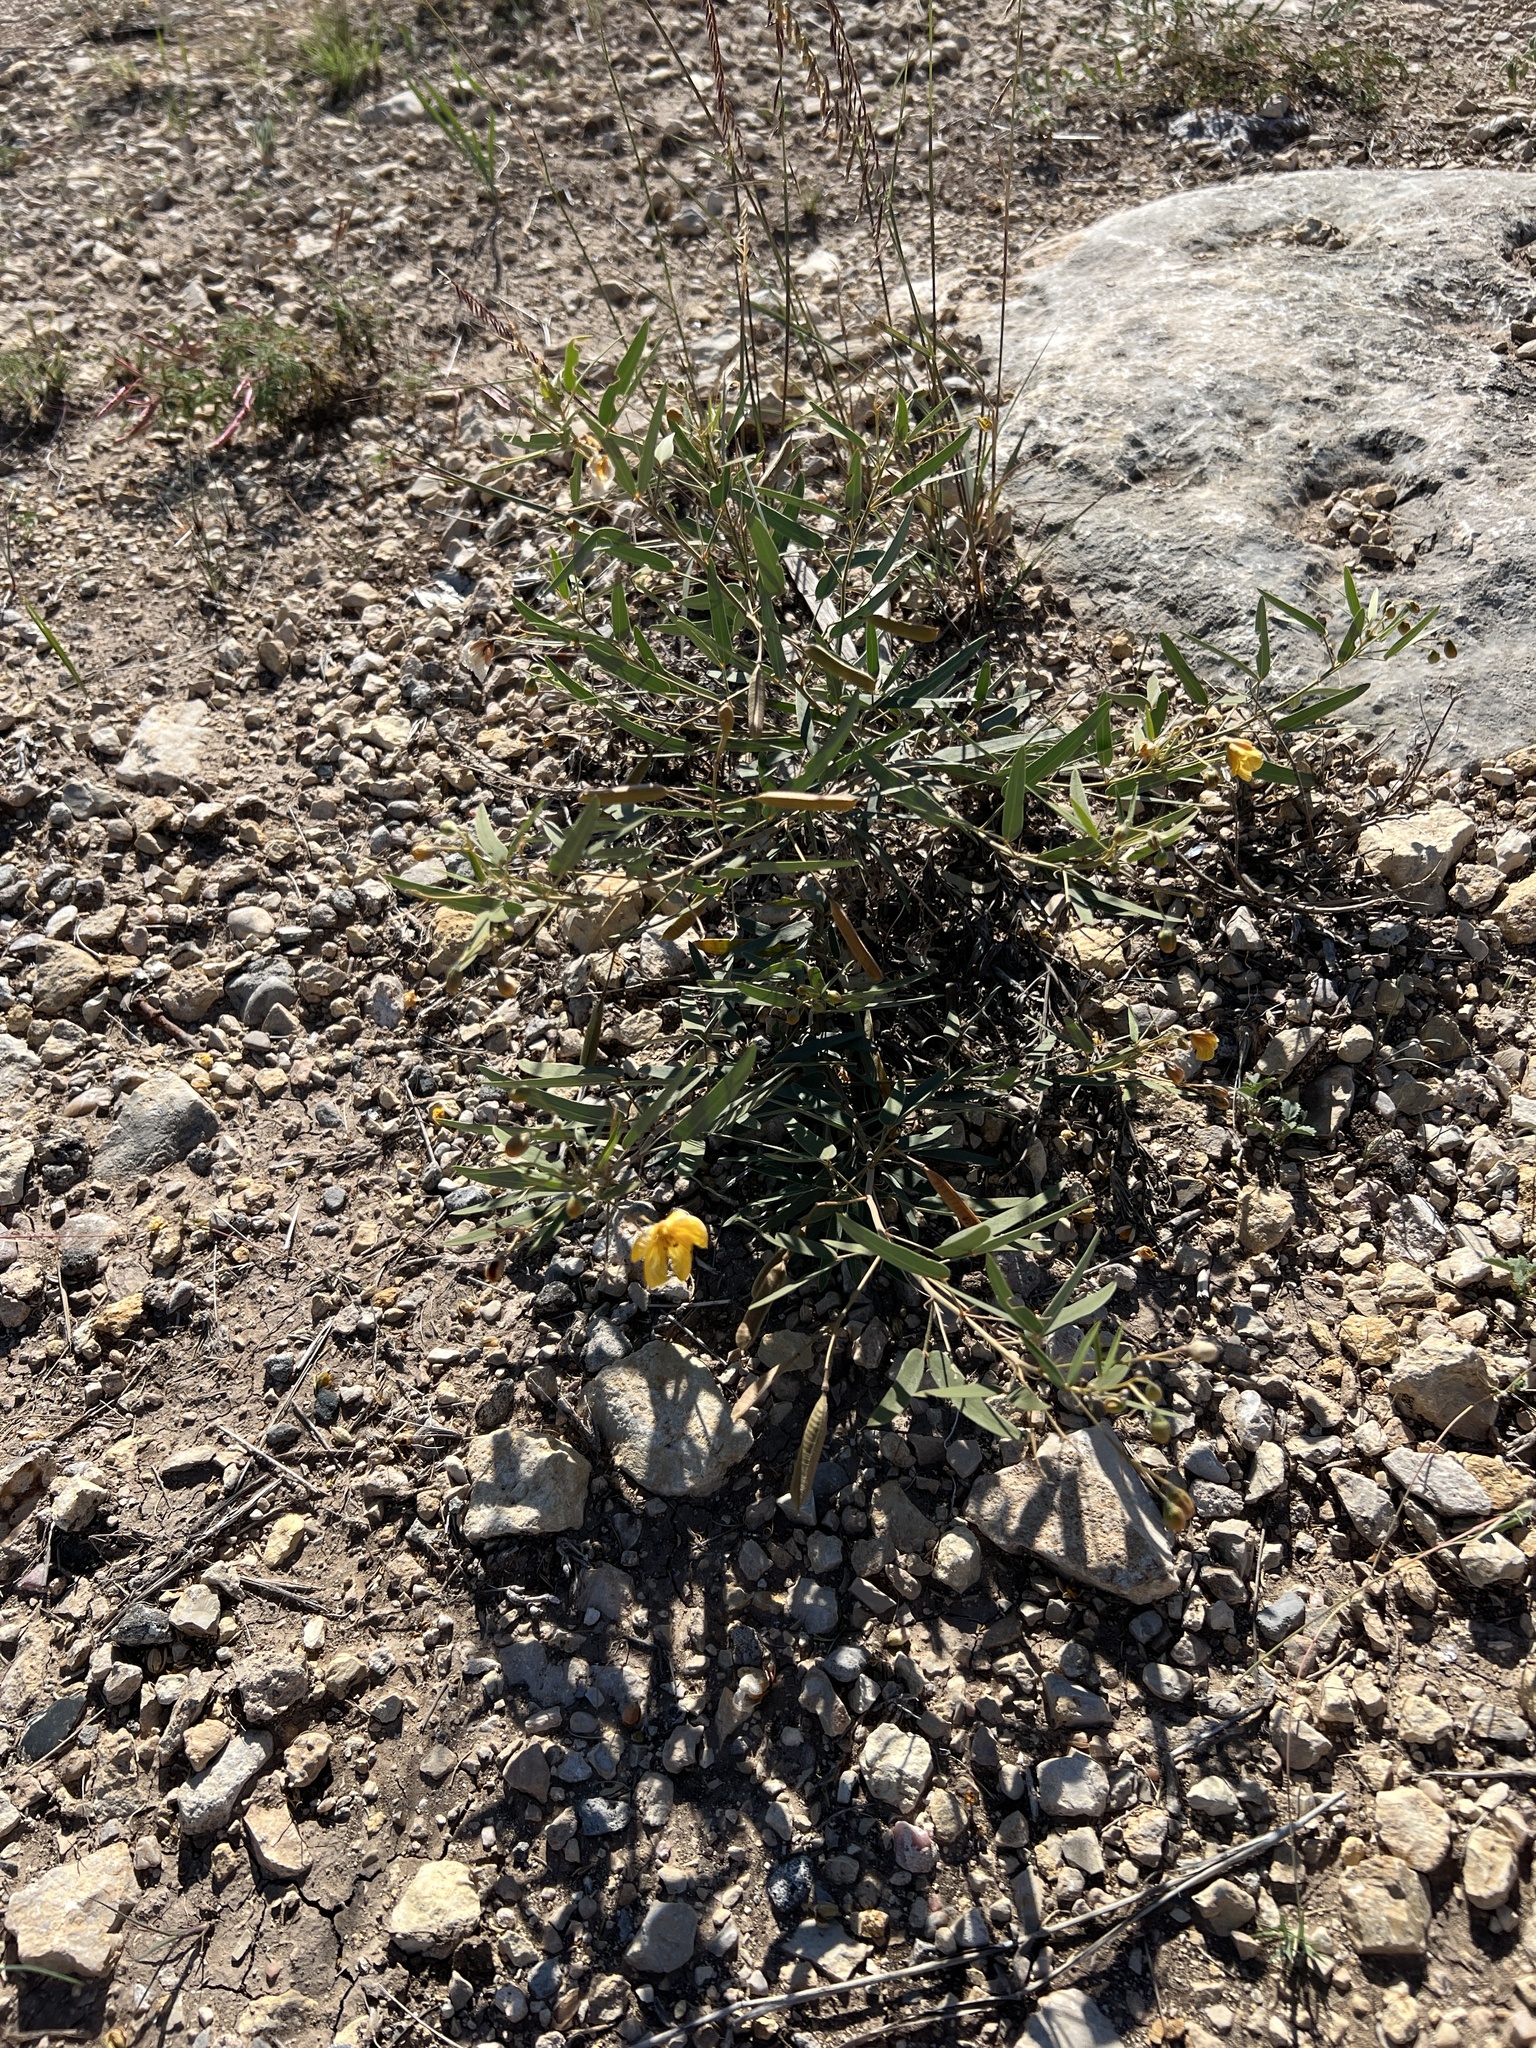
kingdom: Plantae
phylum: Tracheophyta
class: Magnoliopsida
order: Fabales
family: Fabaceae
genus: Senna
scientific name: Senna roemeriana
